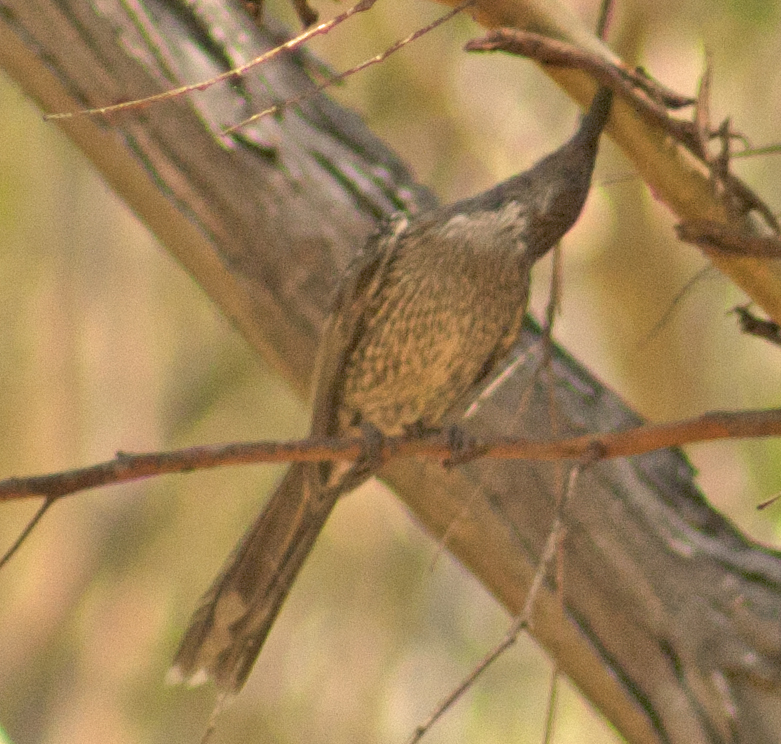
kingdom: Animalia
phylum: Chordata
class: Aves
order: Passeriformes
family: Meliphagidae
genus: Anthochaera
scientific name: Anthochaera chrysoptera
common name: Little wattlebird
